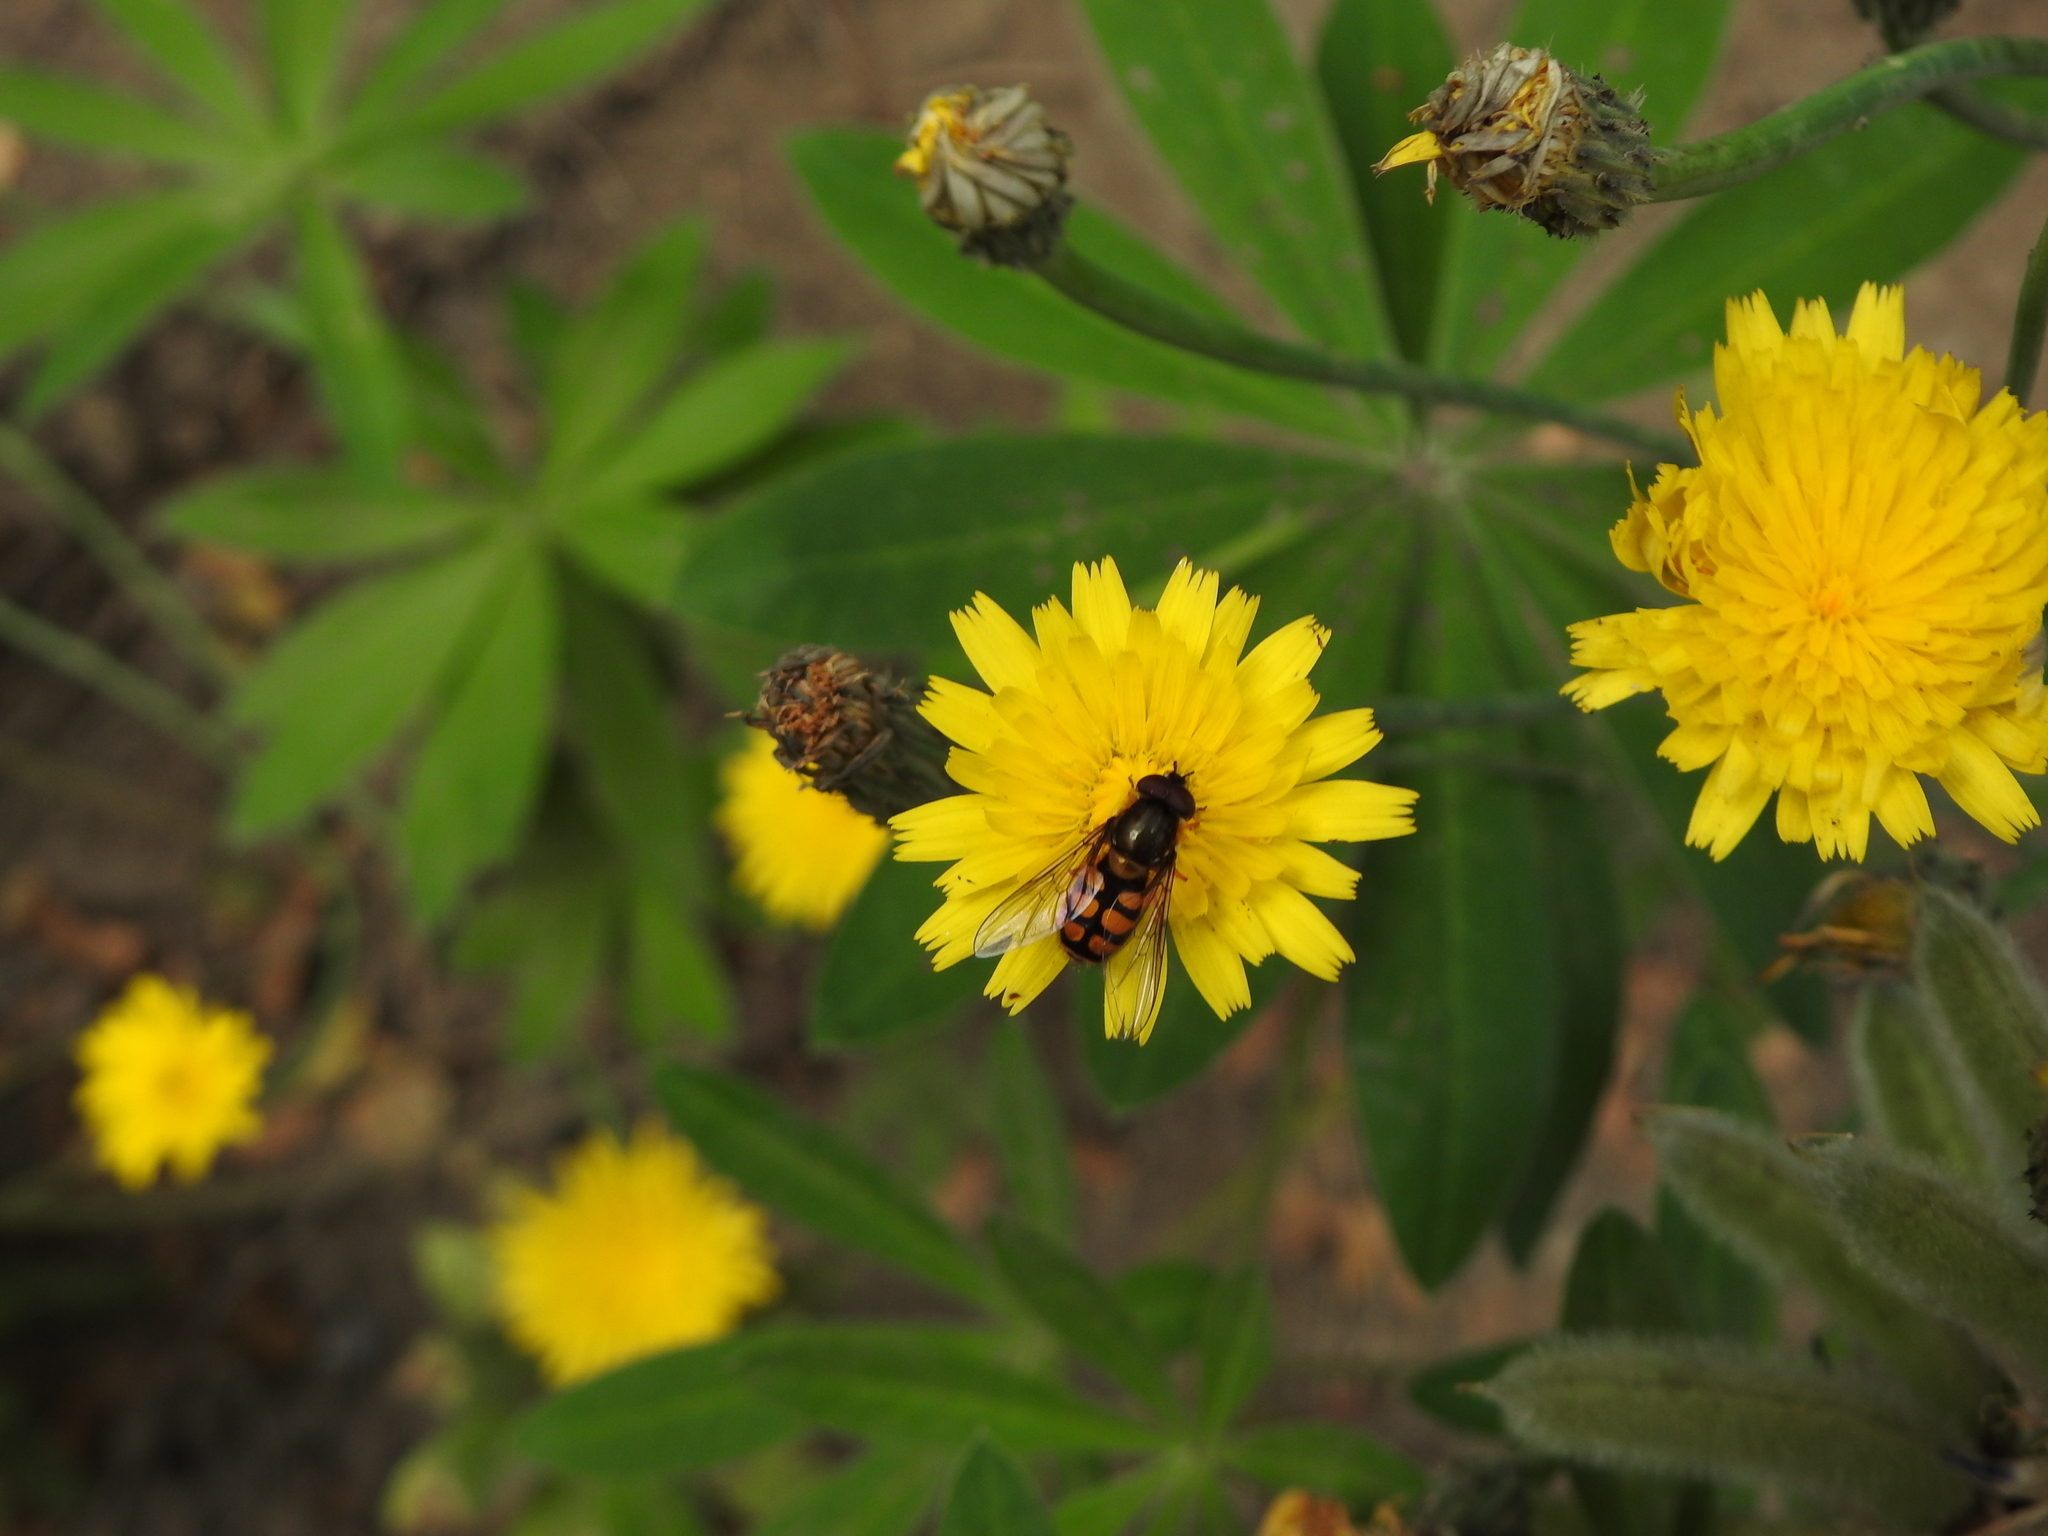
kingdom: Animalia
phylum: Arthropoda
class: Insecta
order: Diptera
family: Syrphidae
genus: Syrphus
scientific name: Syrphus octomaculatus
